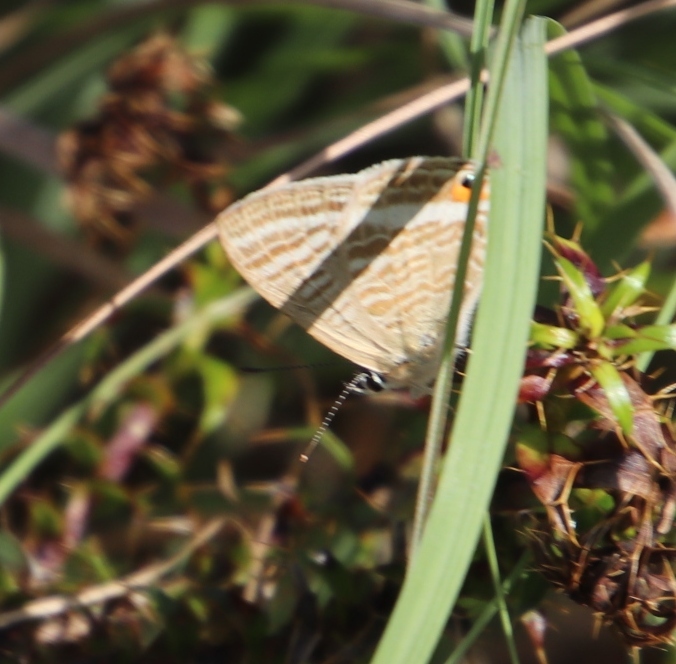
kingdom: Animalia
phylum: Arthropoda
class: Insecta
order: Lepidoptera
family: Lycaenidae
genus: Lampides
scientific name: Lampides boeticus
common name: Long-tailed blue
